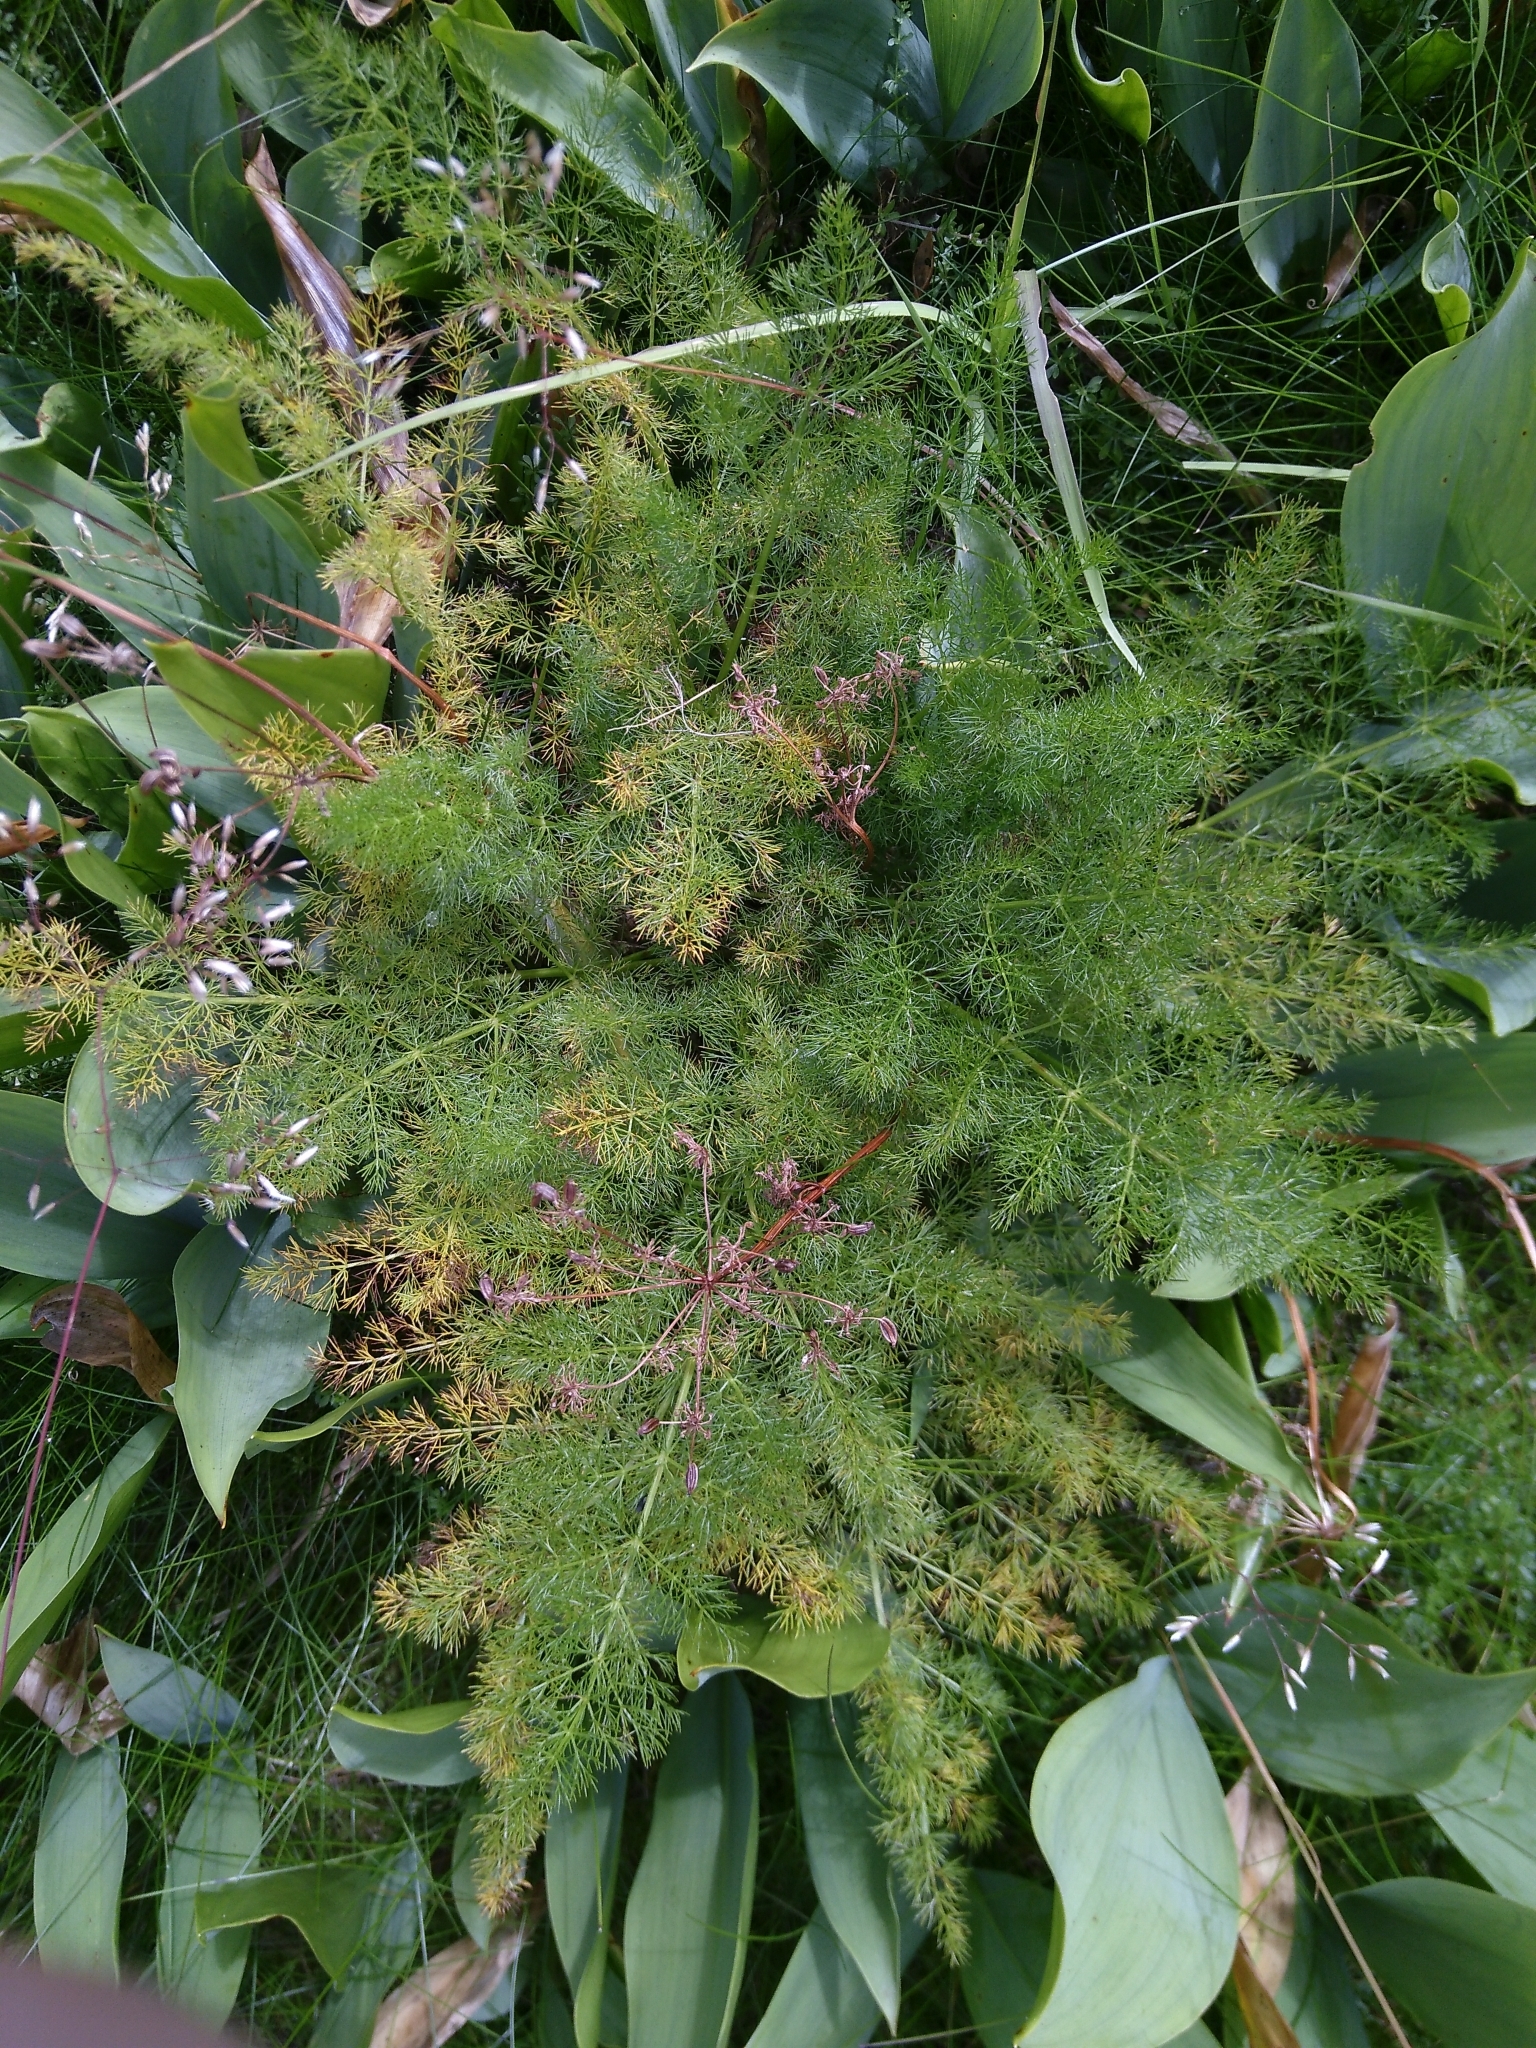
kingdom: Plantae
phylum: Tracheophyta
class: Magnoliopsida
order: Apiales
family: Apiaceae
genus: Meum
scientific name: Meum athamanticum
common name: Spignel
